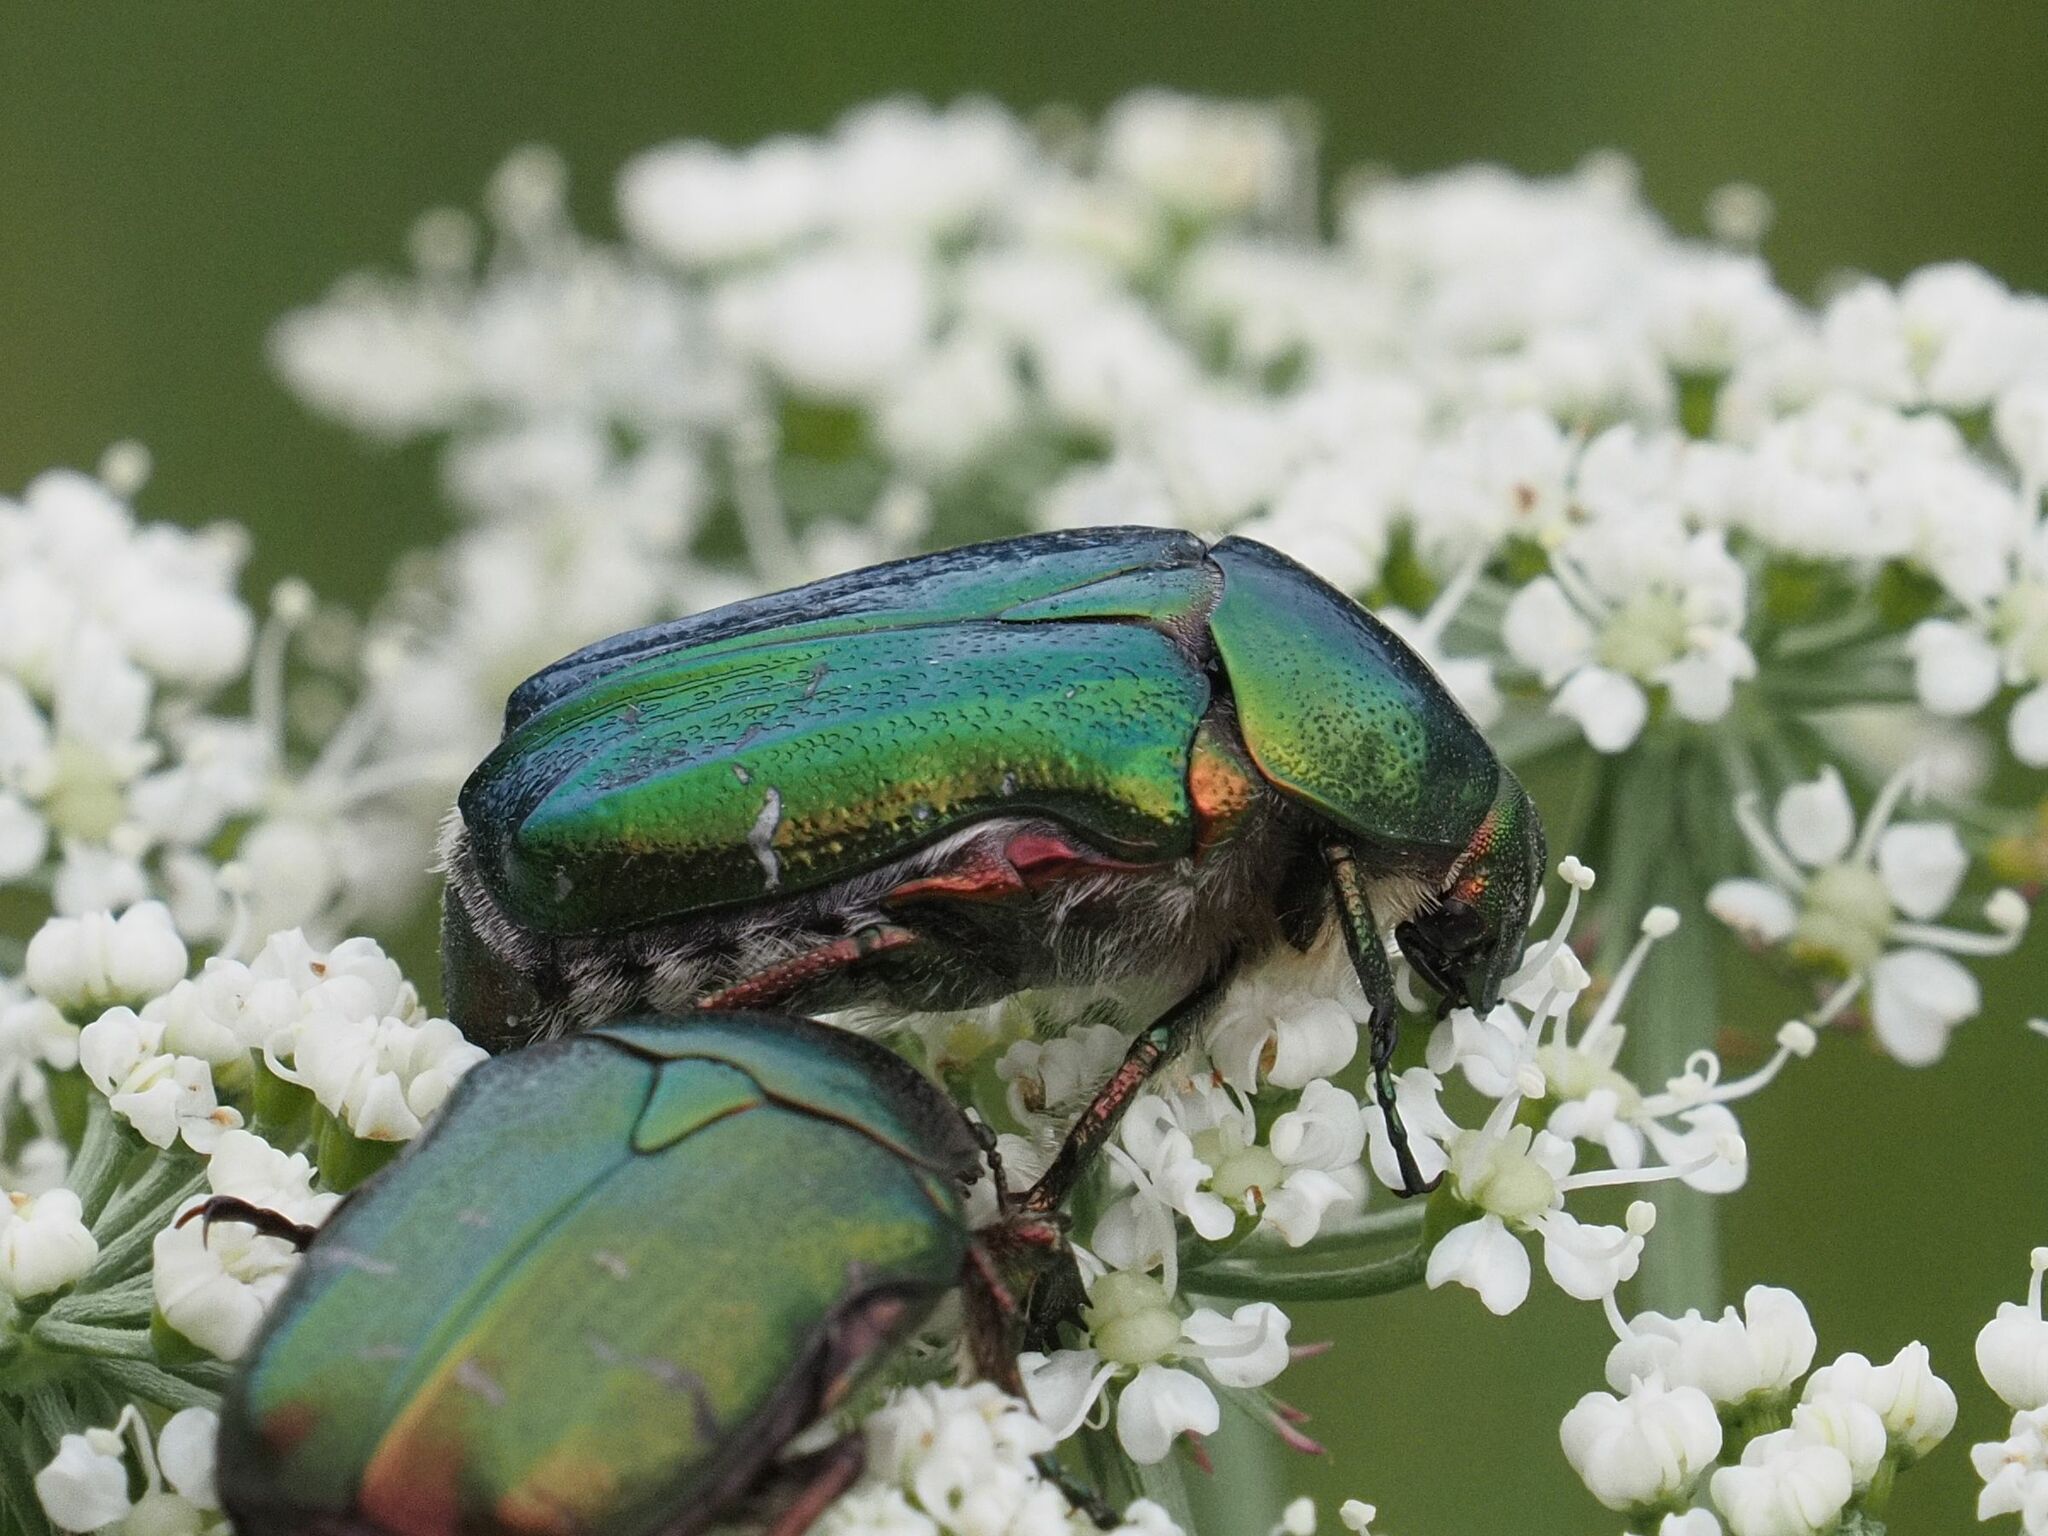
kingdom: Animalia
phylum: Arthropoda
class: Insecta
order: Coleoptera
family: Scarabaeidae
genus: Cetonia
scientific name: Cetonia aurata
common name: Rose chafer
